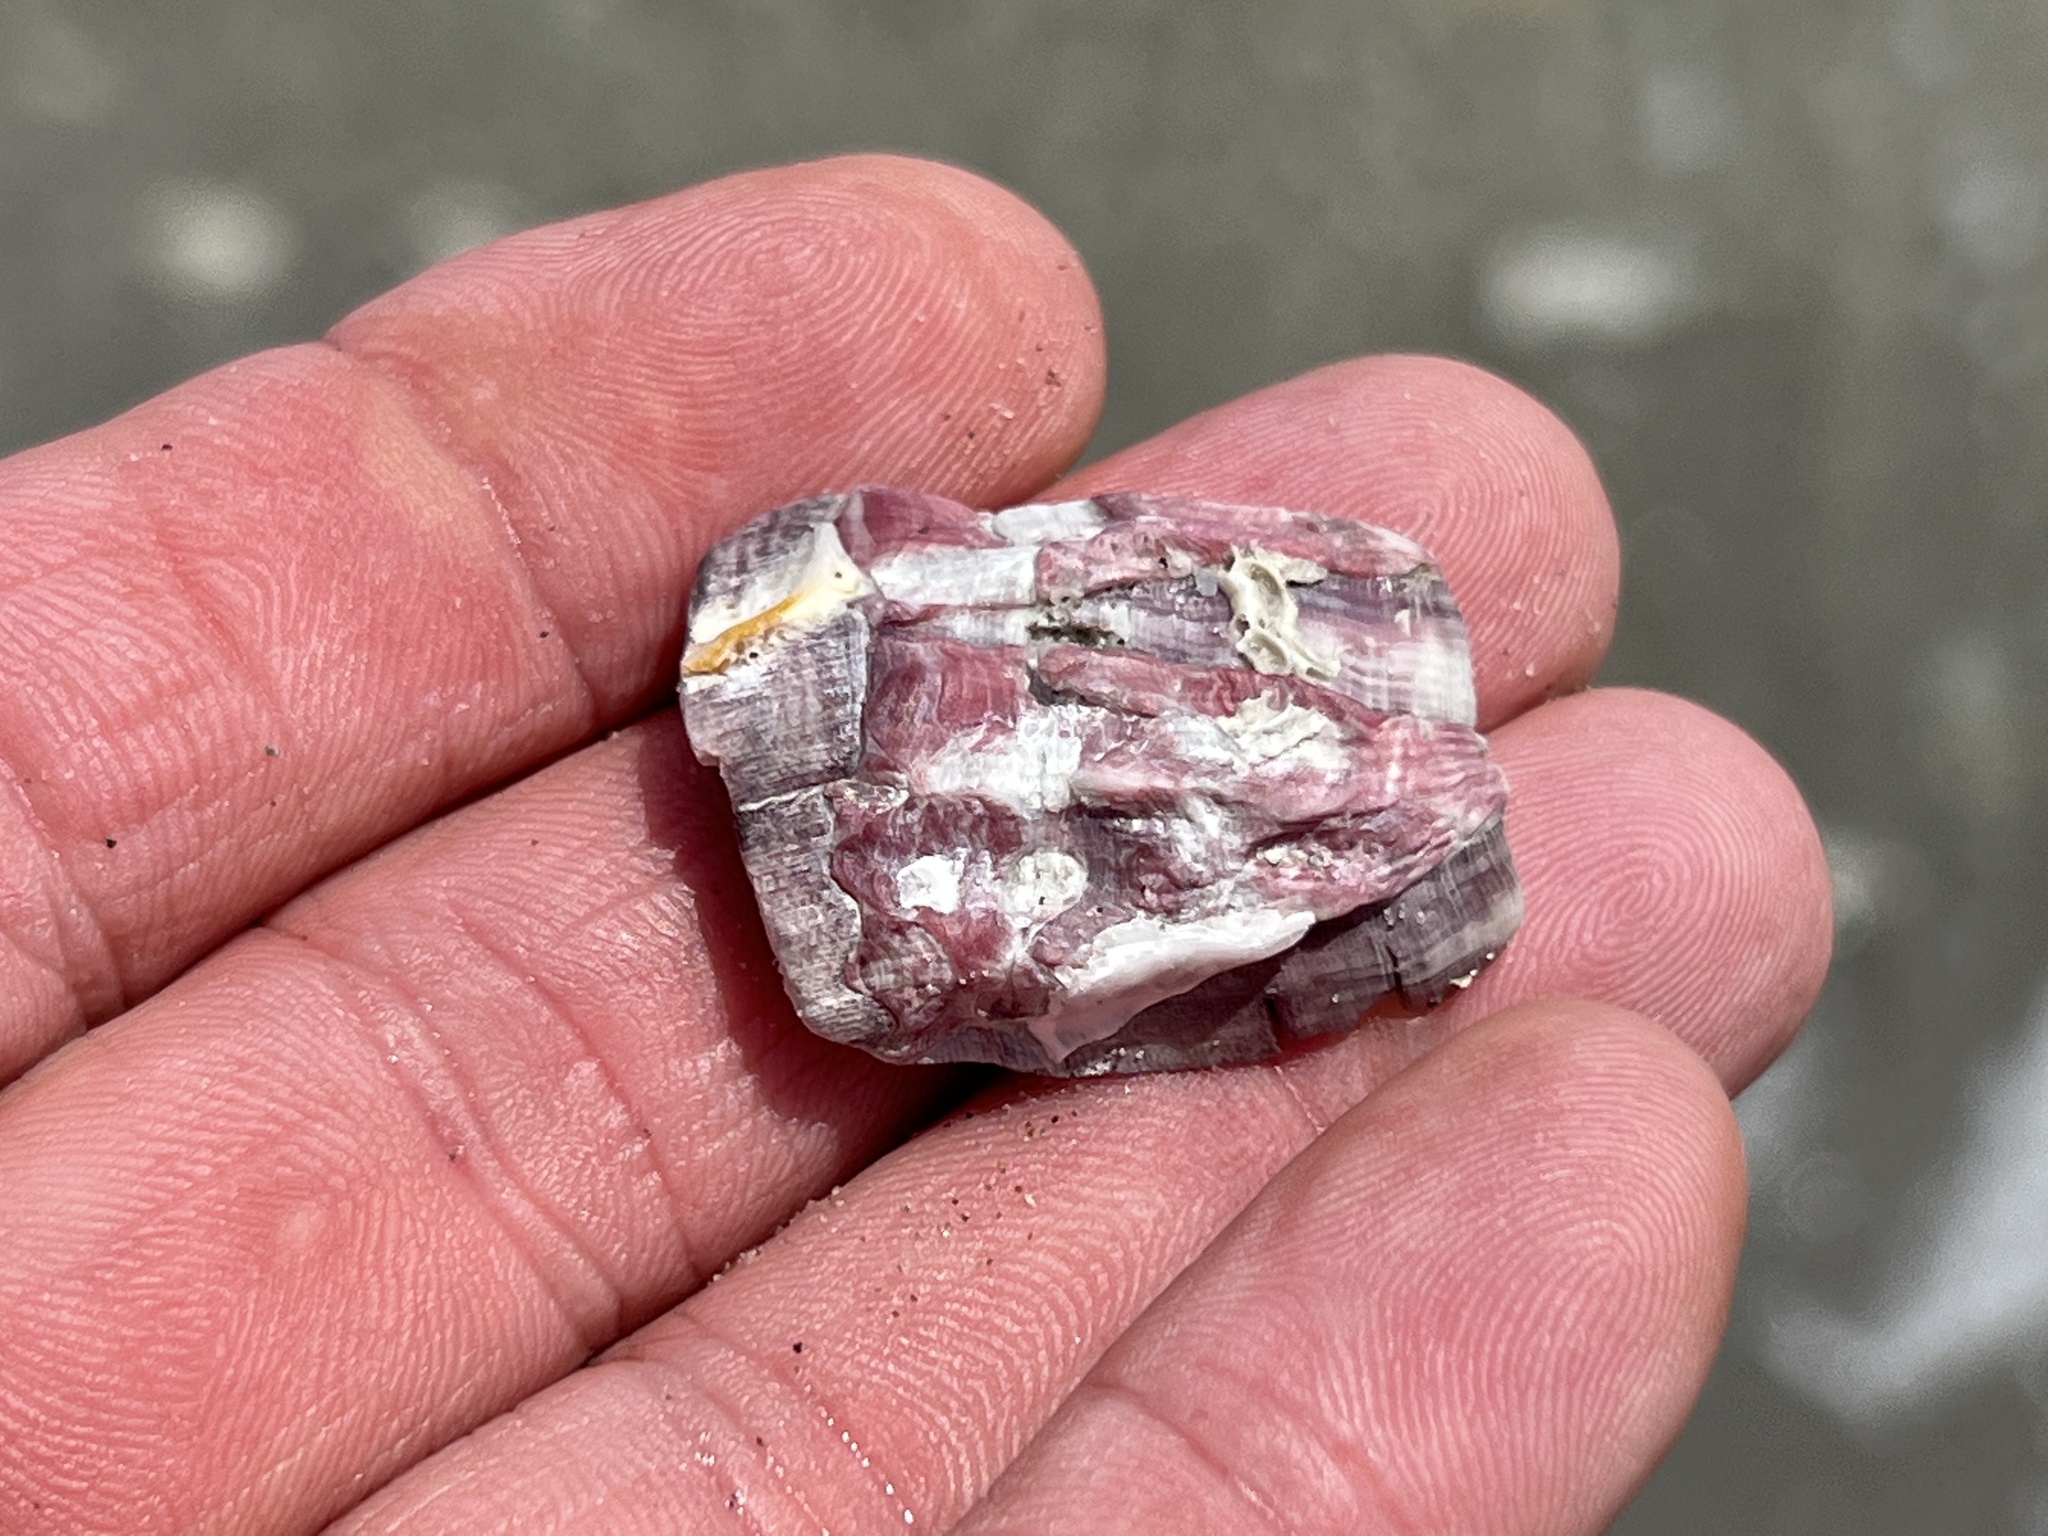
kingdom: Animalia
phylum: Arthropoda
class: Maxillopoda
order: Sessilia
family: Balanidae
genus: Megabalanus
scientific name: Megabalanus tintinnabulum
